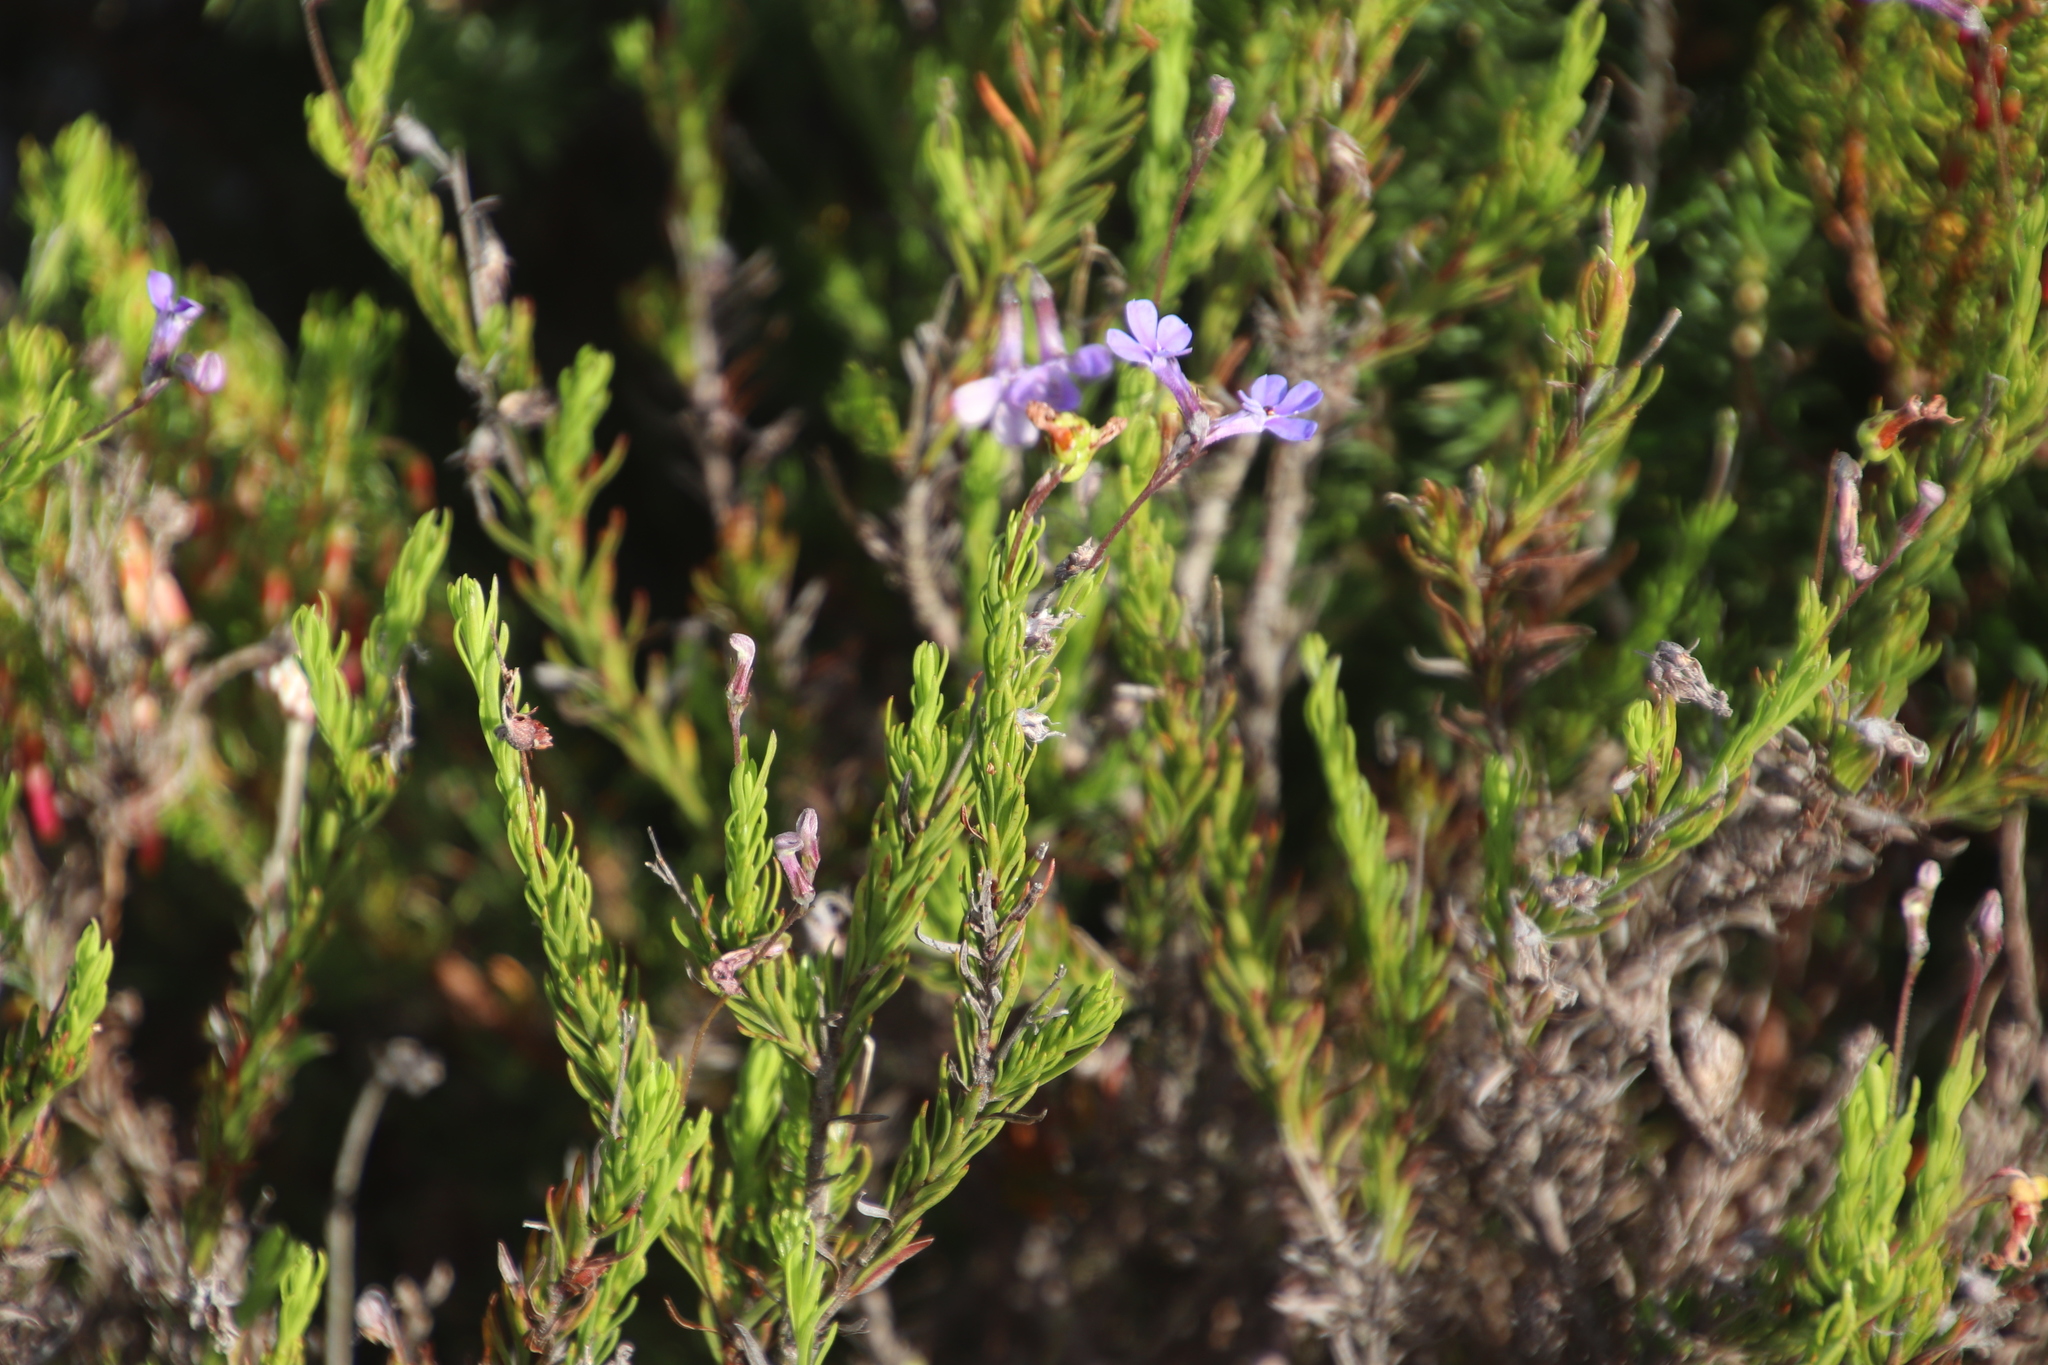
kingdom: Plantae
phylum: Tracheophyta
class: Magnoliopsida
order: Asterales
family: Campanulaceae
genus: Lobelia
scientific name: Lobelia pinifolia
